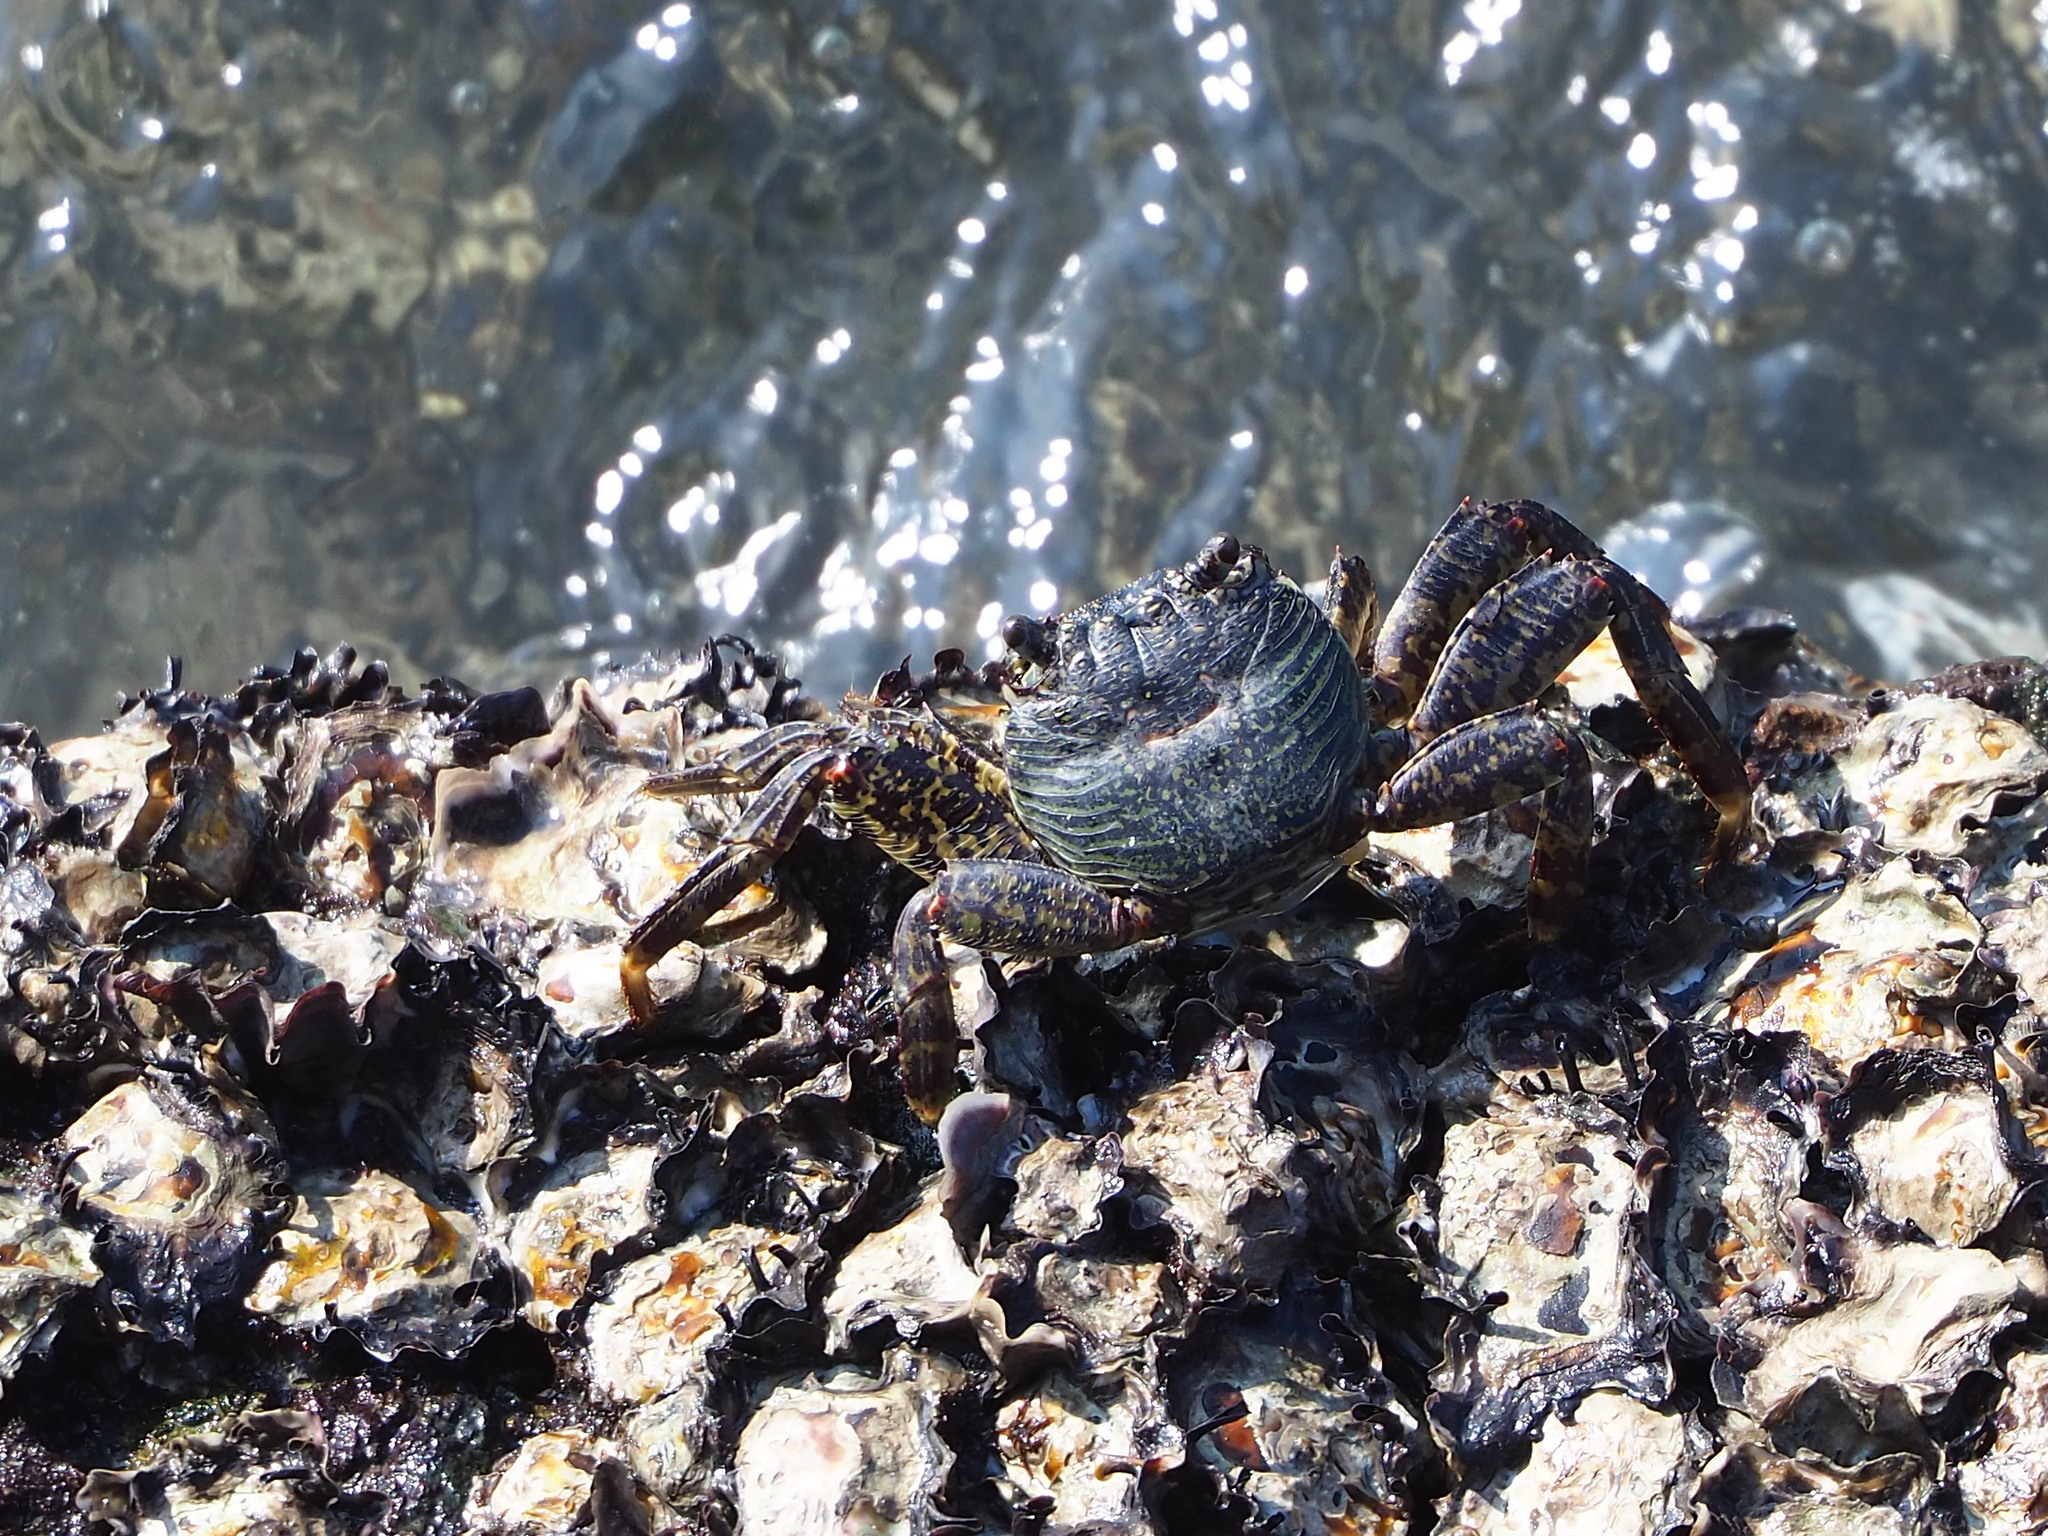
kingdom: Animalia
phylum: Arthropoda
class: Malacostraca
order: Decapoda
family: Grapsidae
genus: Grapsus
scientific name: Grapsus albolineatus
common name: Mottled lightfoot crab
